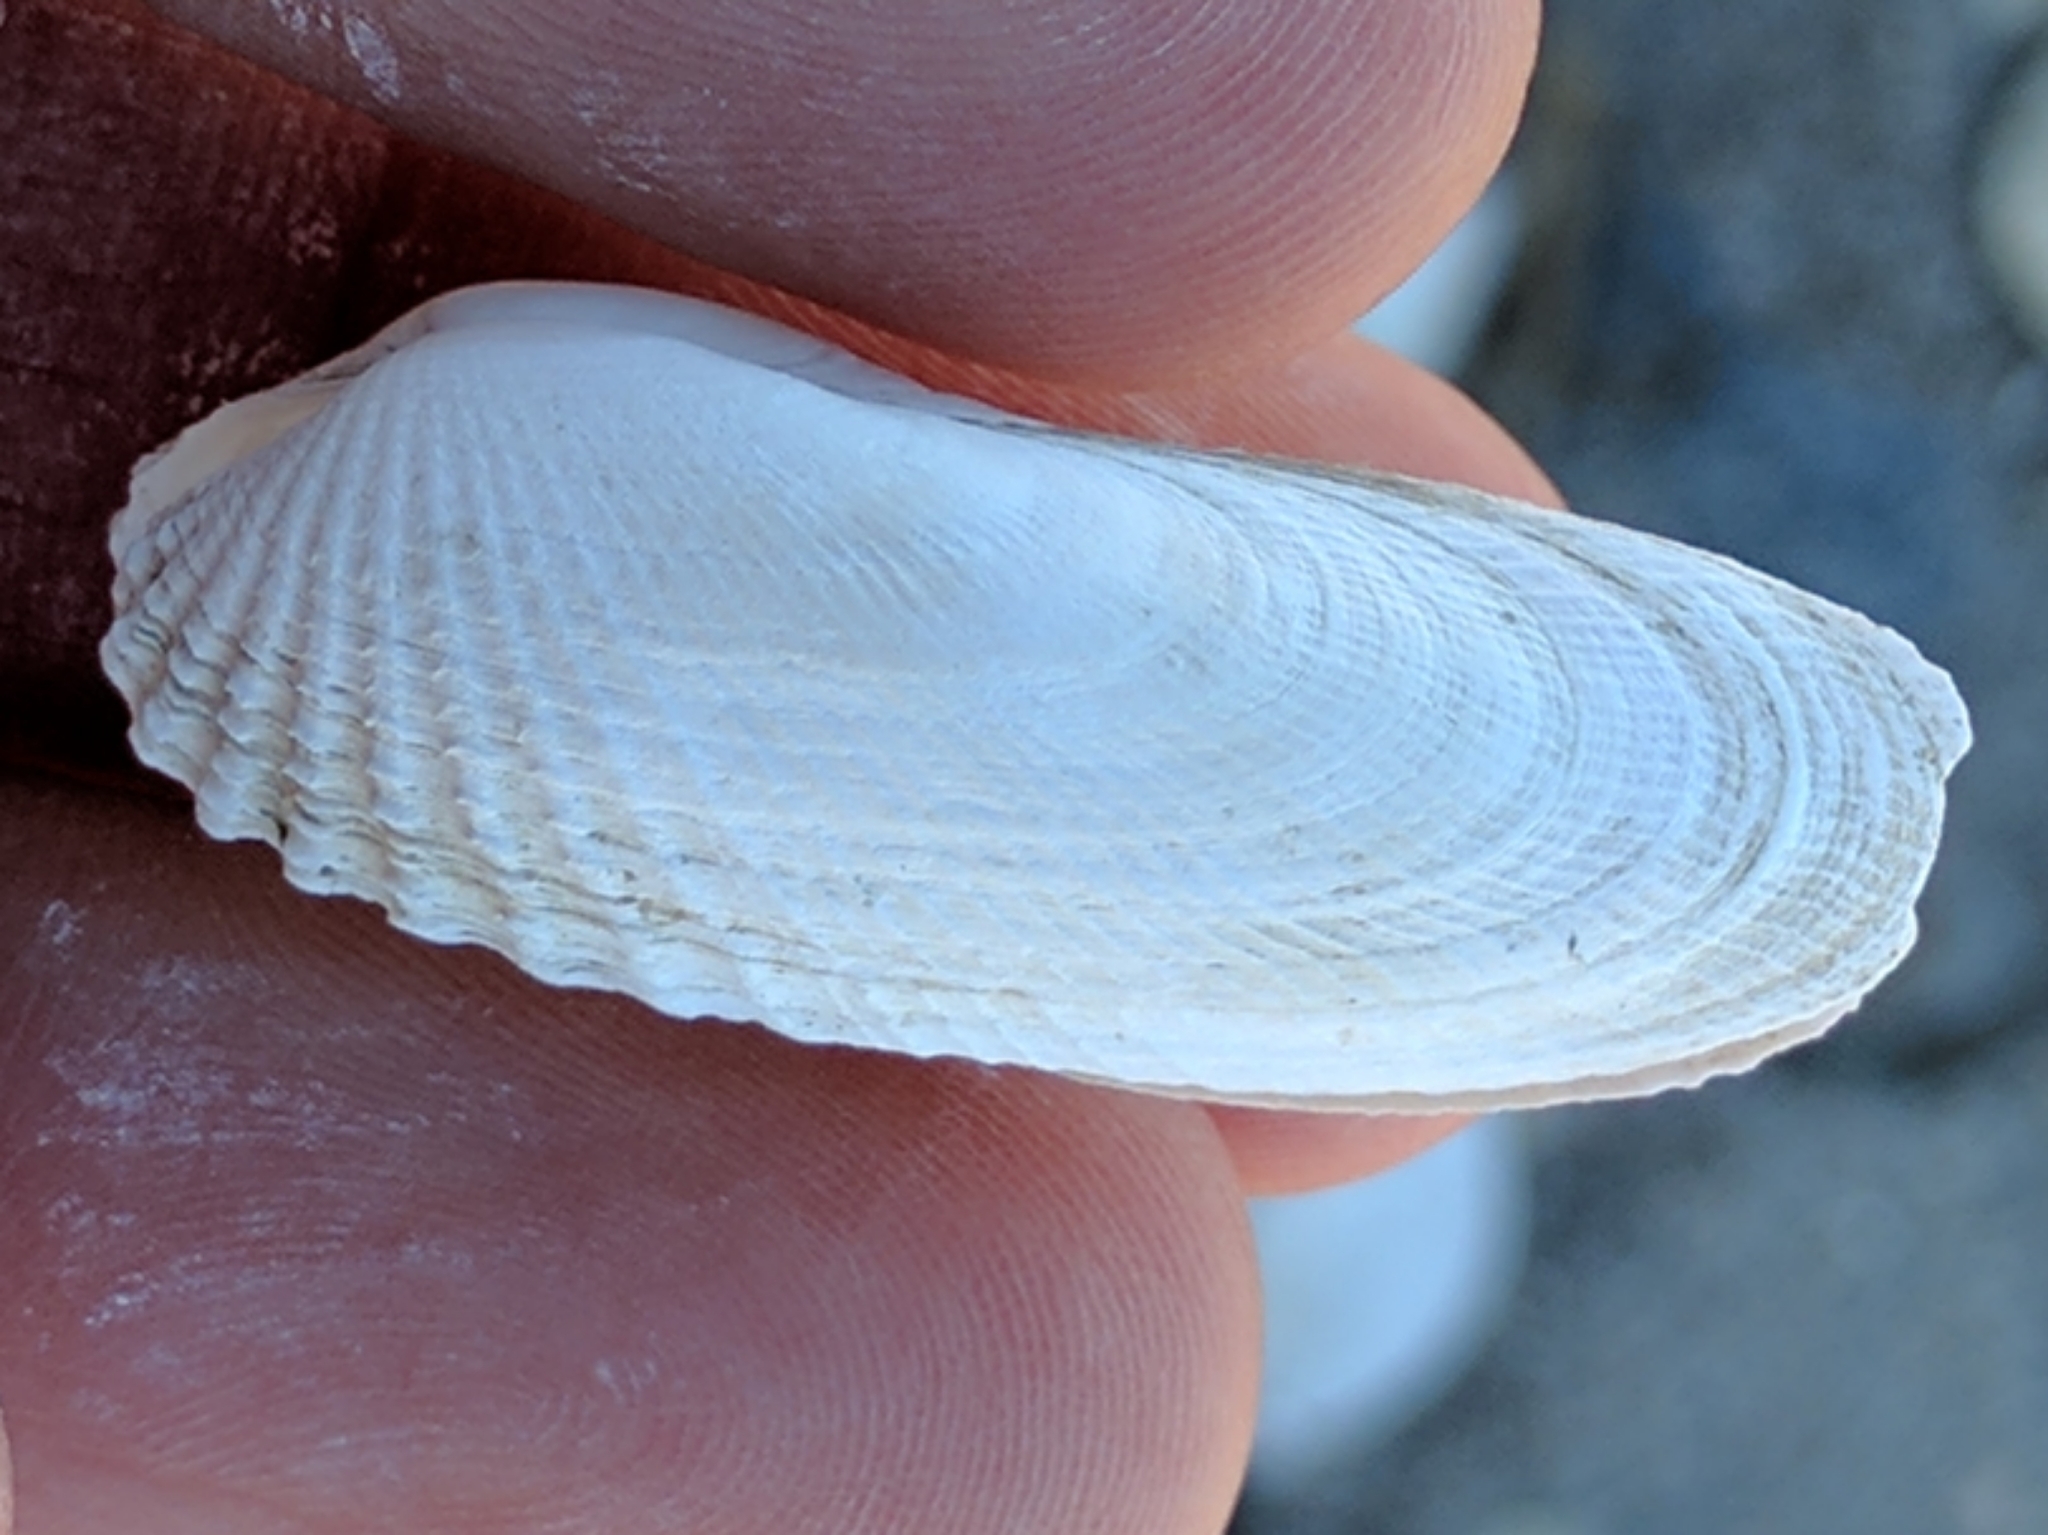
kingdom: Animalia
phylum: Mollusca
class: Bivalvia
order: Venerida
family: Veneridae
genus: Petricolaria
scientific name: Petricolaria pholadiformis
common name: American piddock
